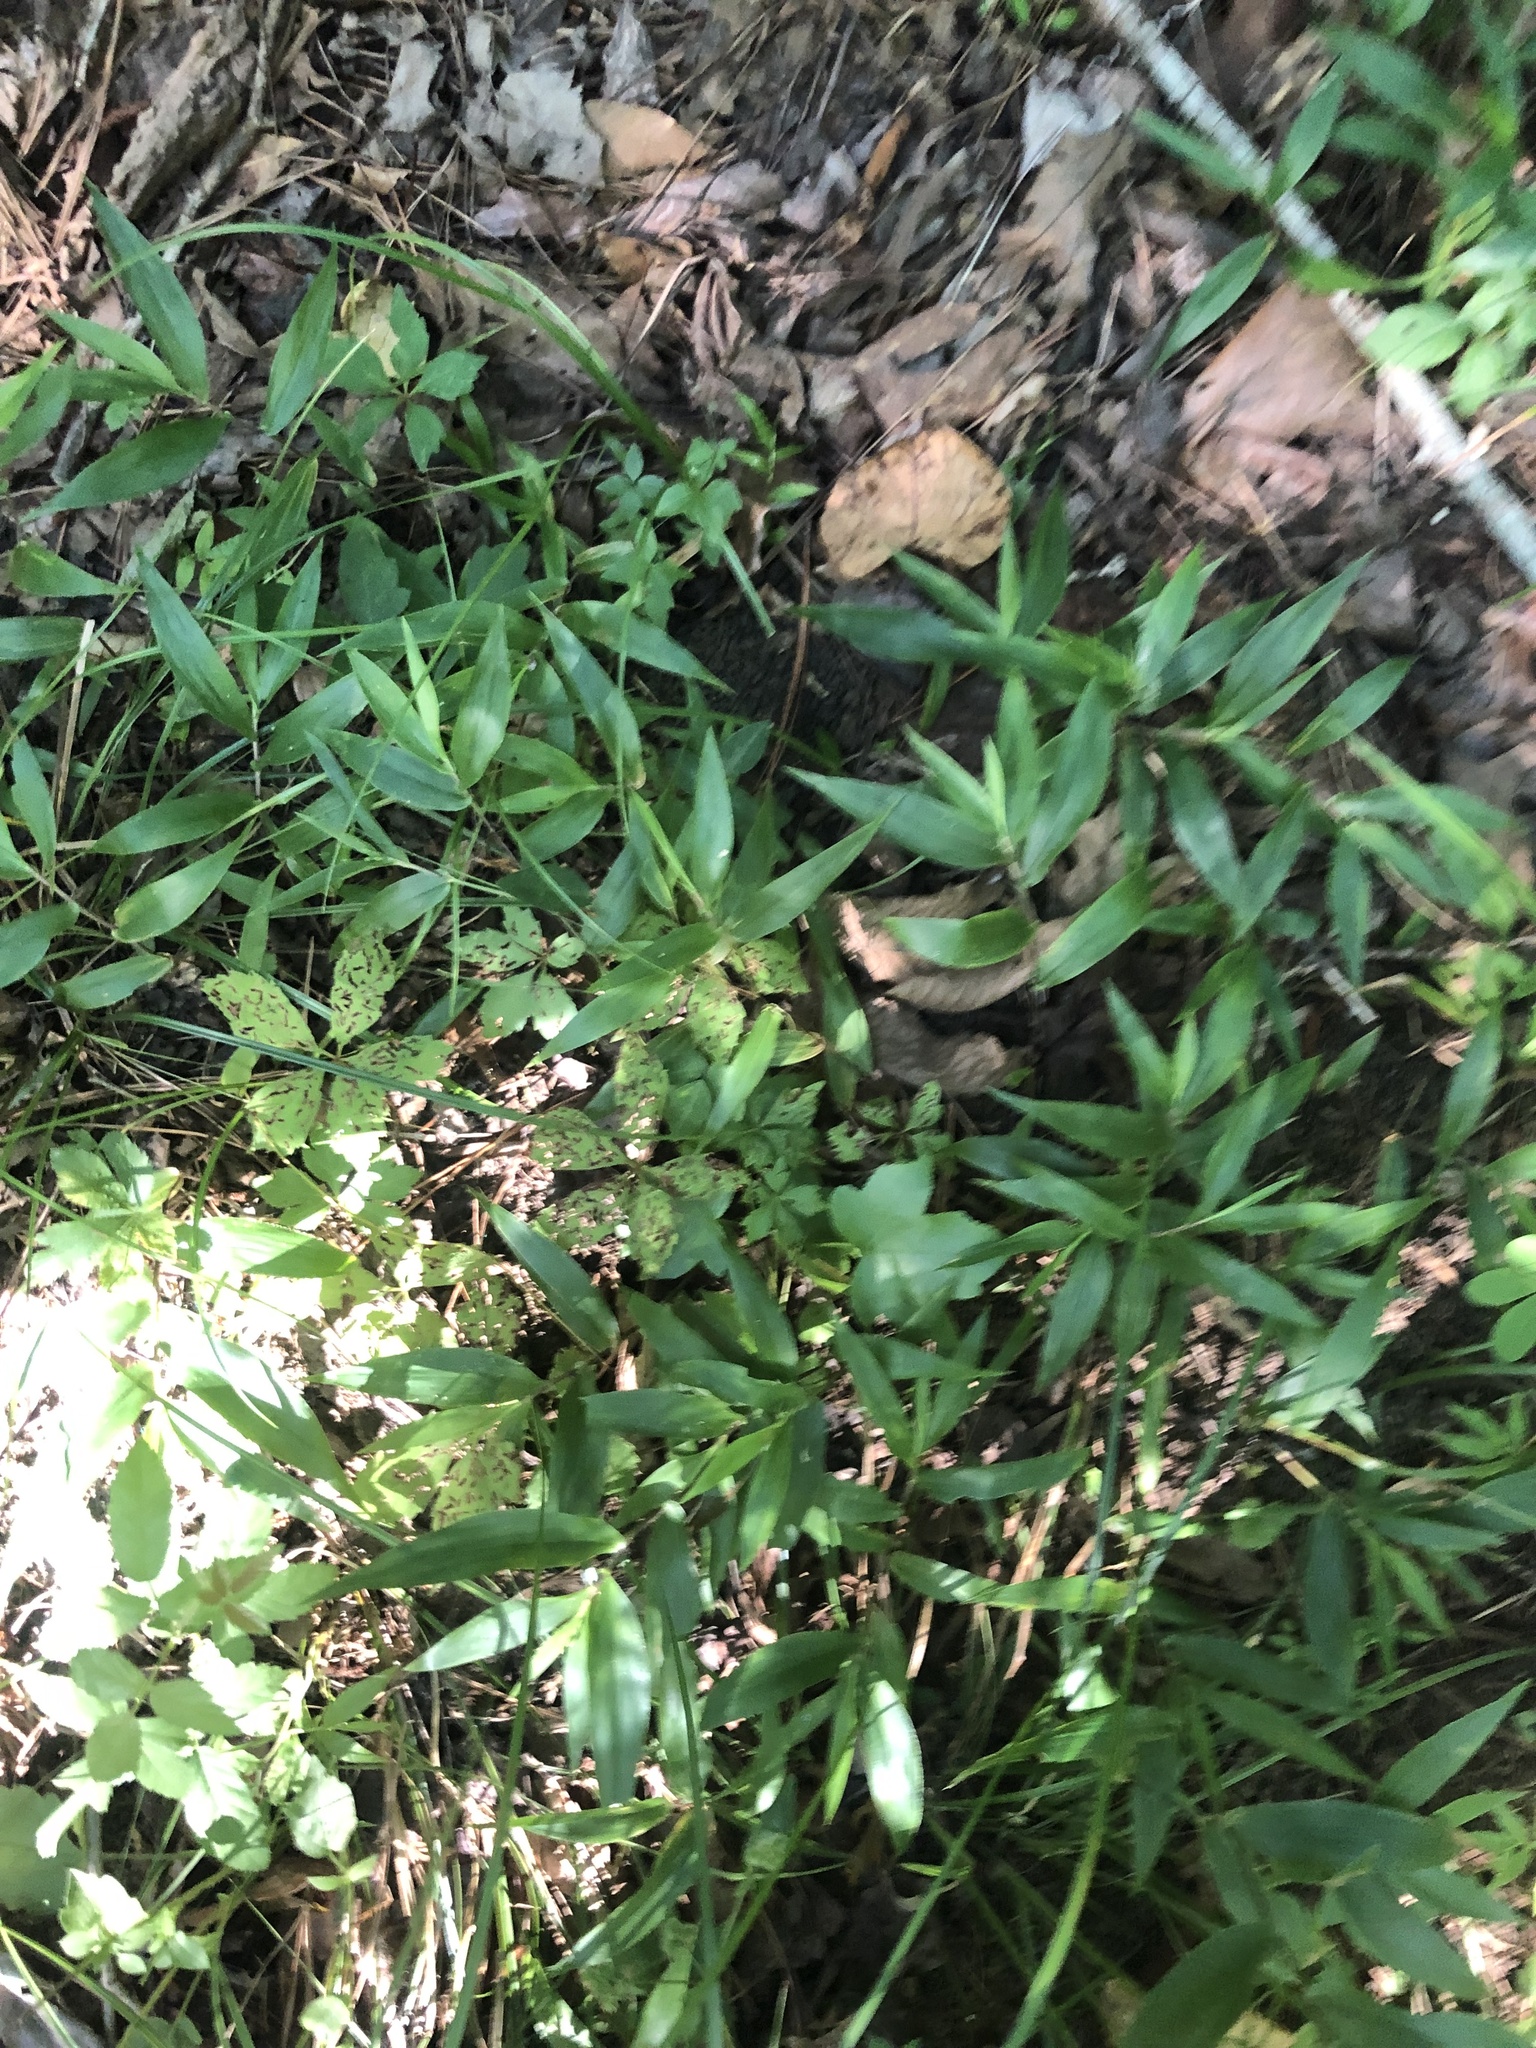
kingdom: Plantae
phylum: Tracheophyta
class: Liliopsida
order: Poales
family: Poaceae
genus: Dichanthelium
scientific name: Dichanthelium commutatum
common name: Variable witchgrass
